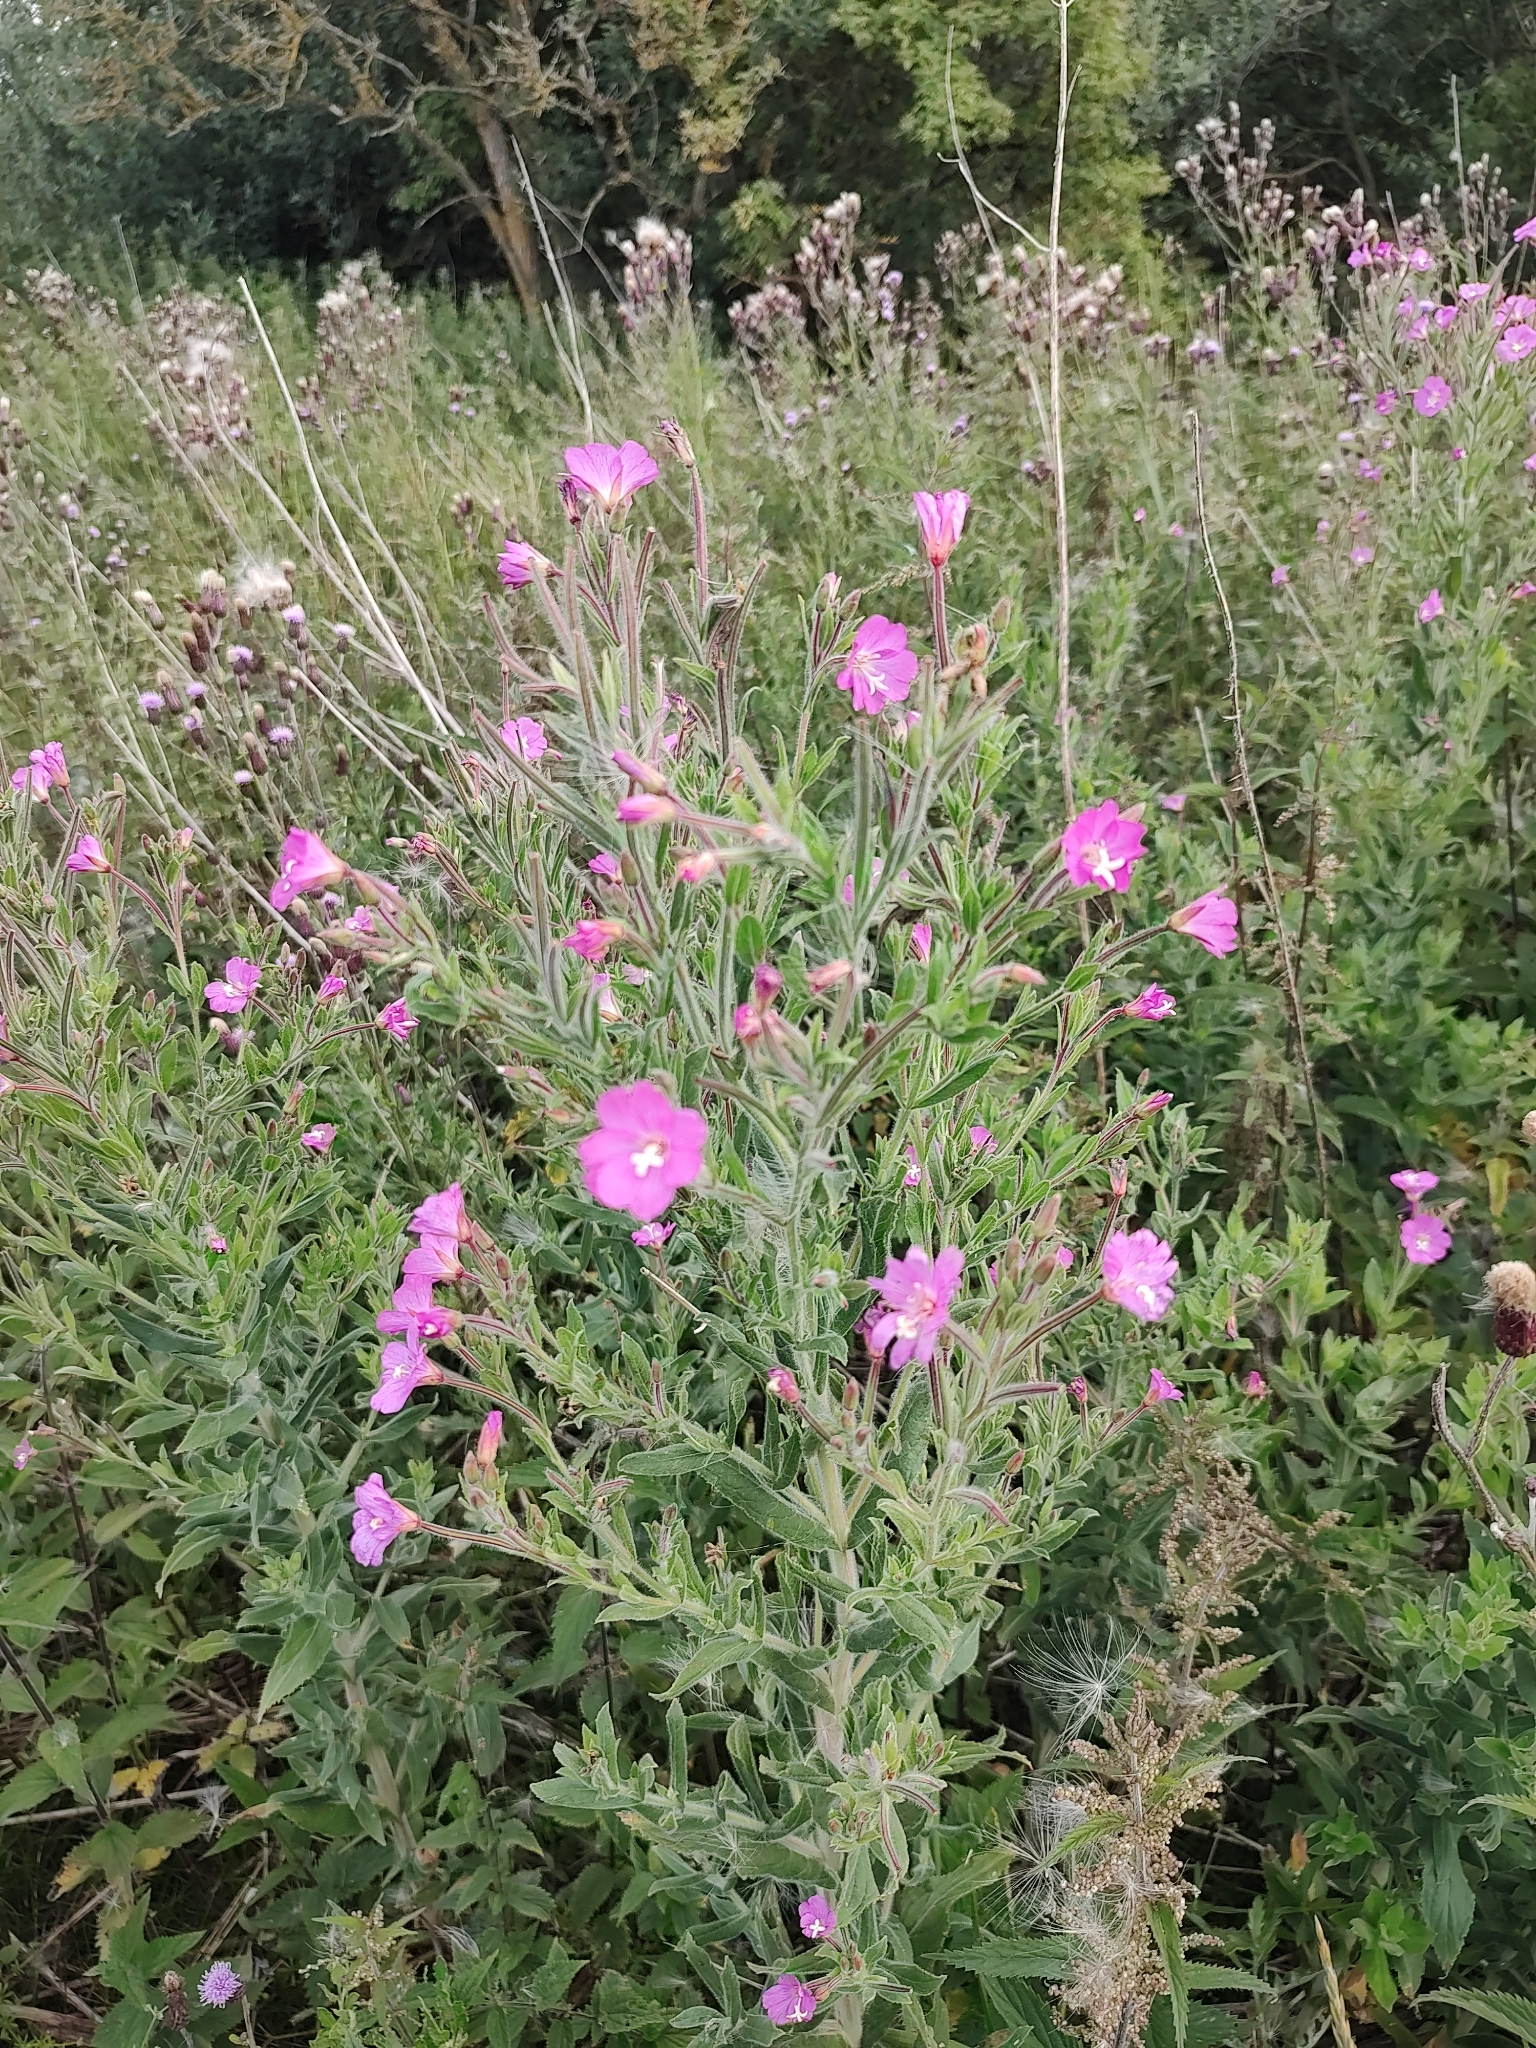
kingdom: Plantae
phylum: Tracheophyta
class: Magnoliopsida
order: Myrtales
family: Onagraceae
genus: Epilobium
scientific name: Epilobium hirsutum
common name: Great willowherb
